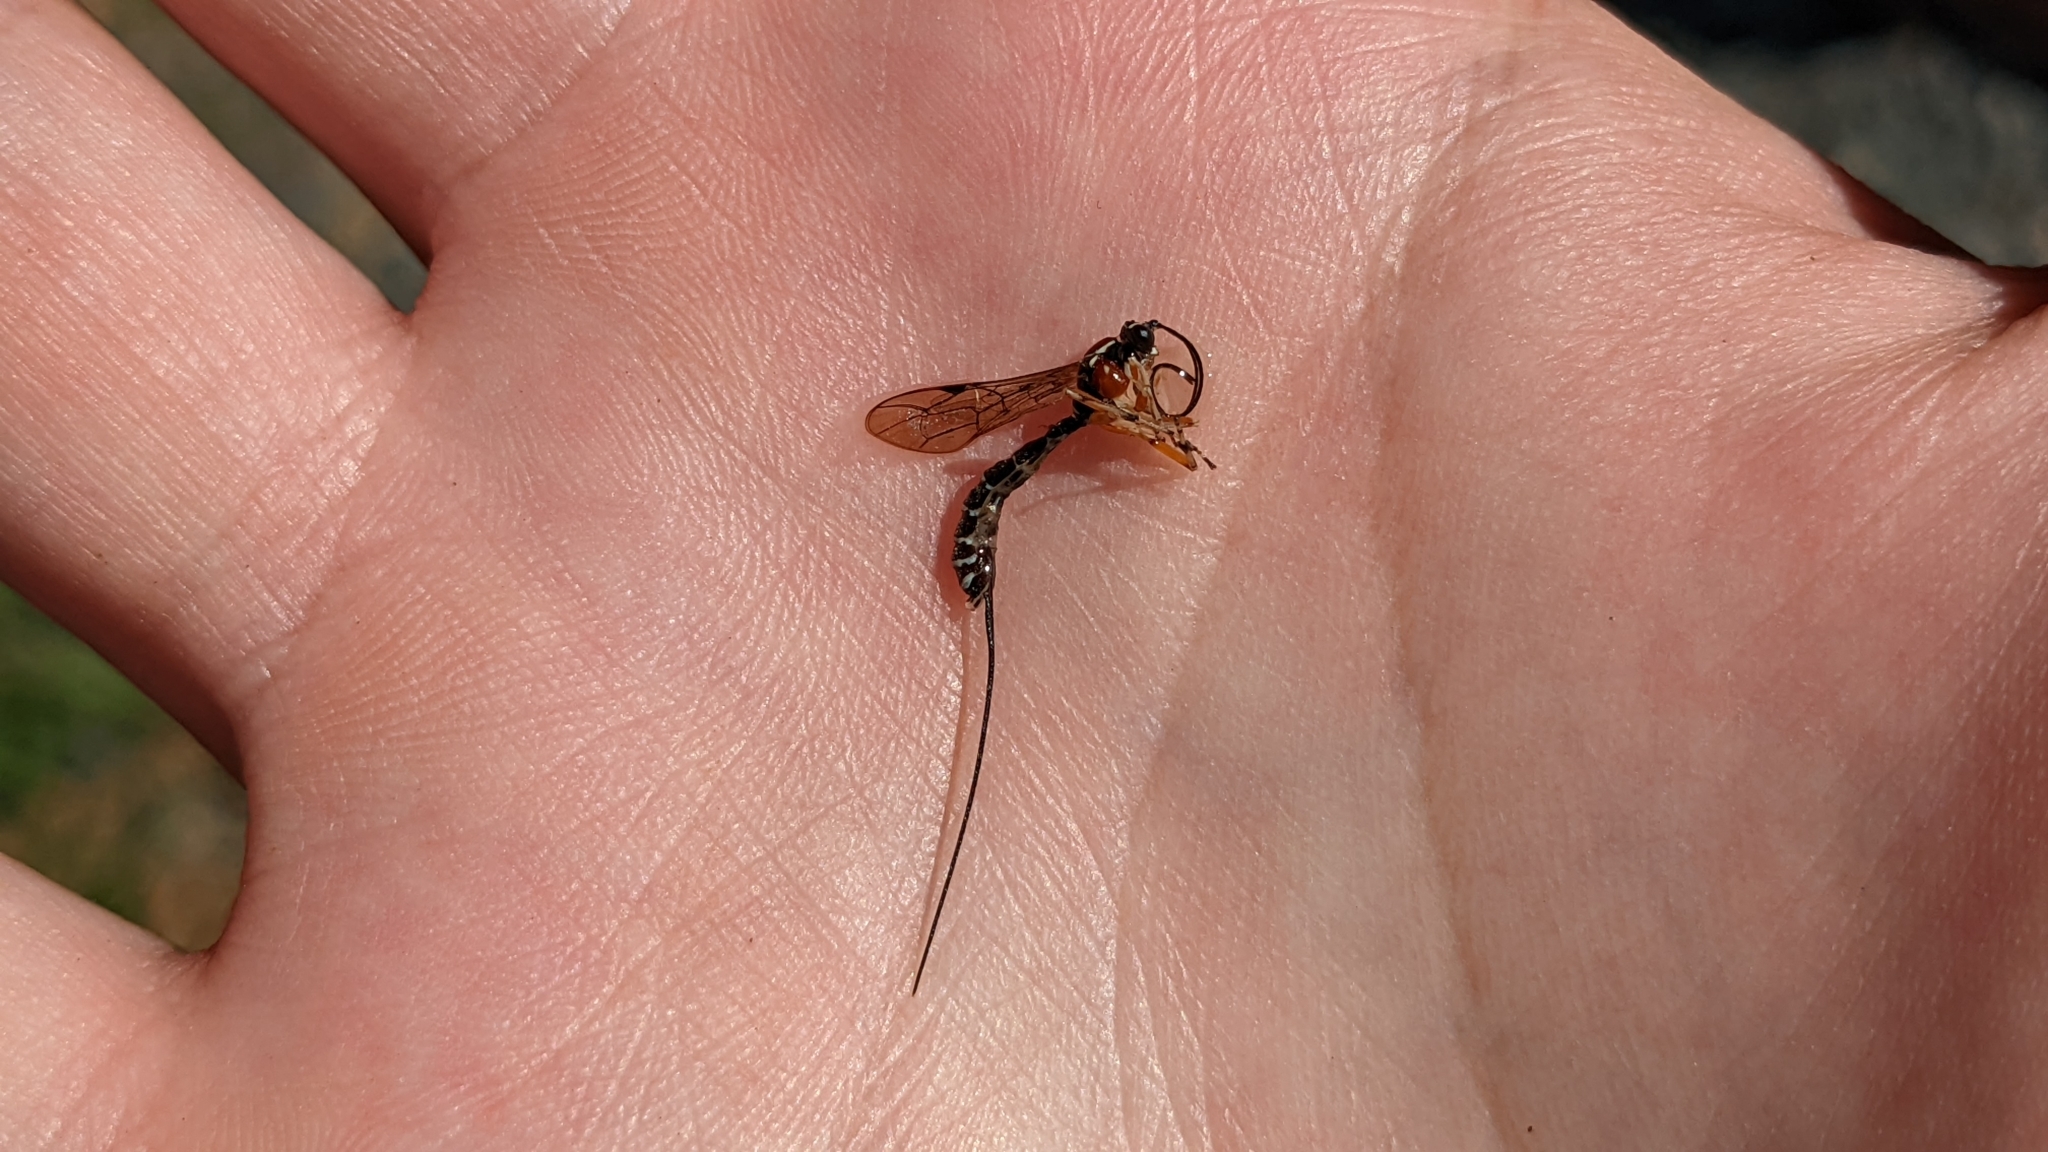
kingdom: Animalia
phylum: Arthropoda
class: Insecta
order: Hymenoptera
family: Ichneumonidae
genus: Perithous
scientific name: Perithous scurra
